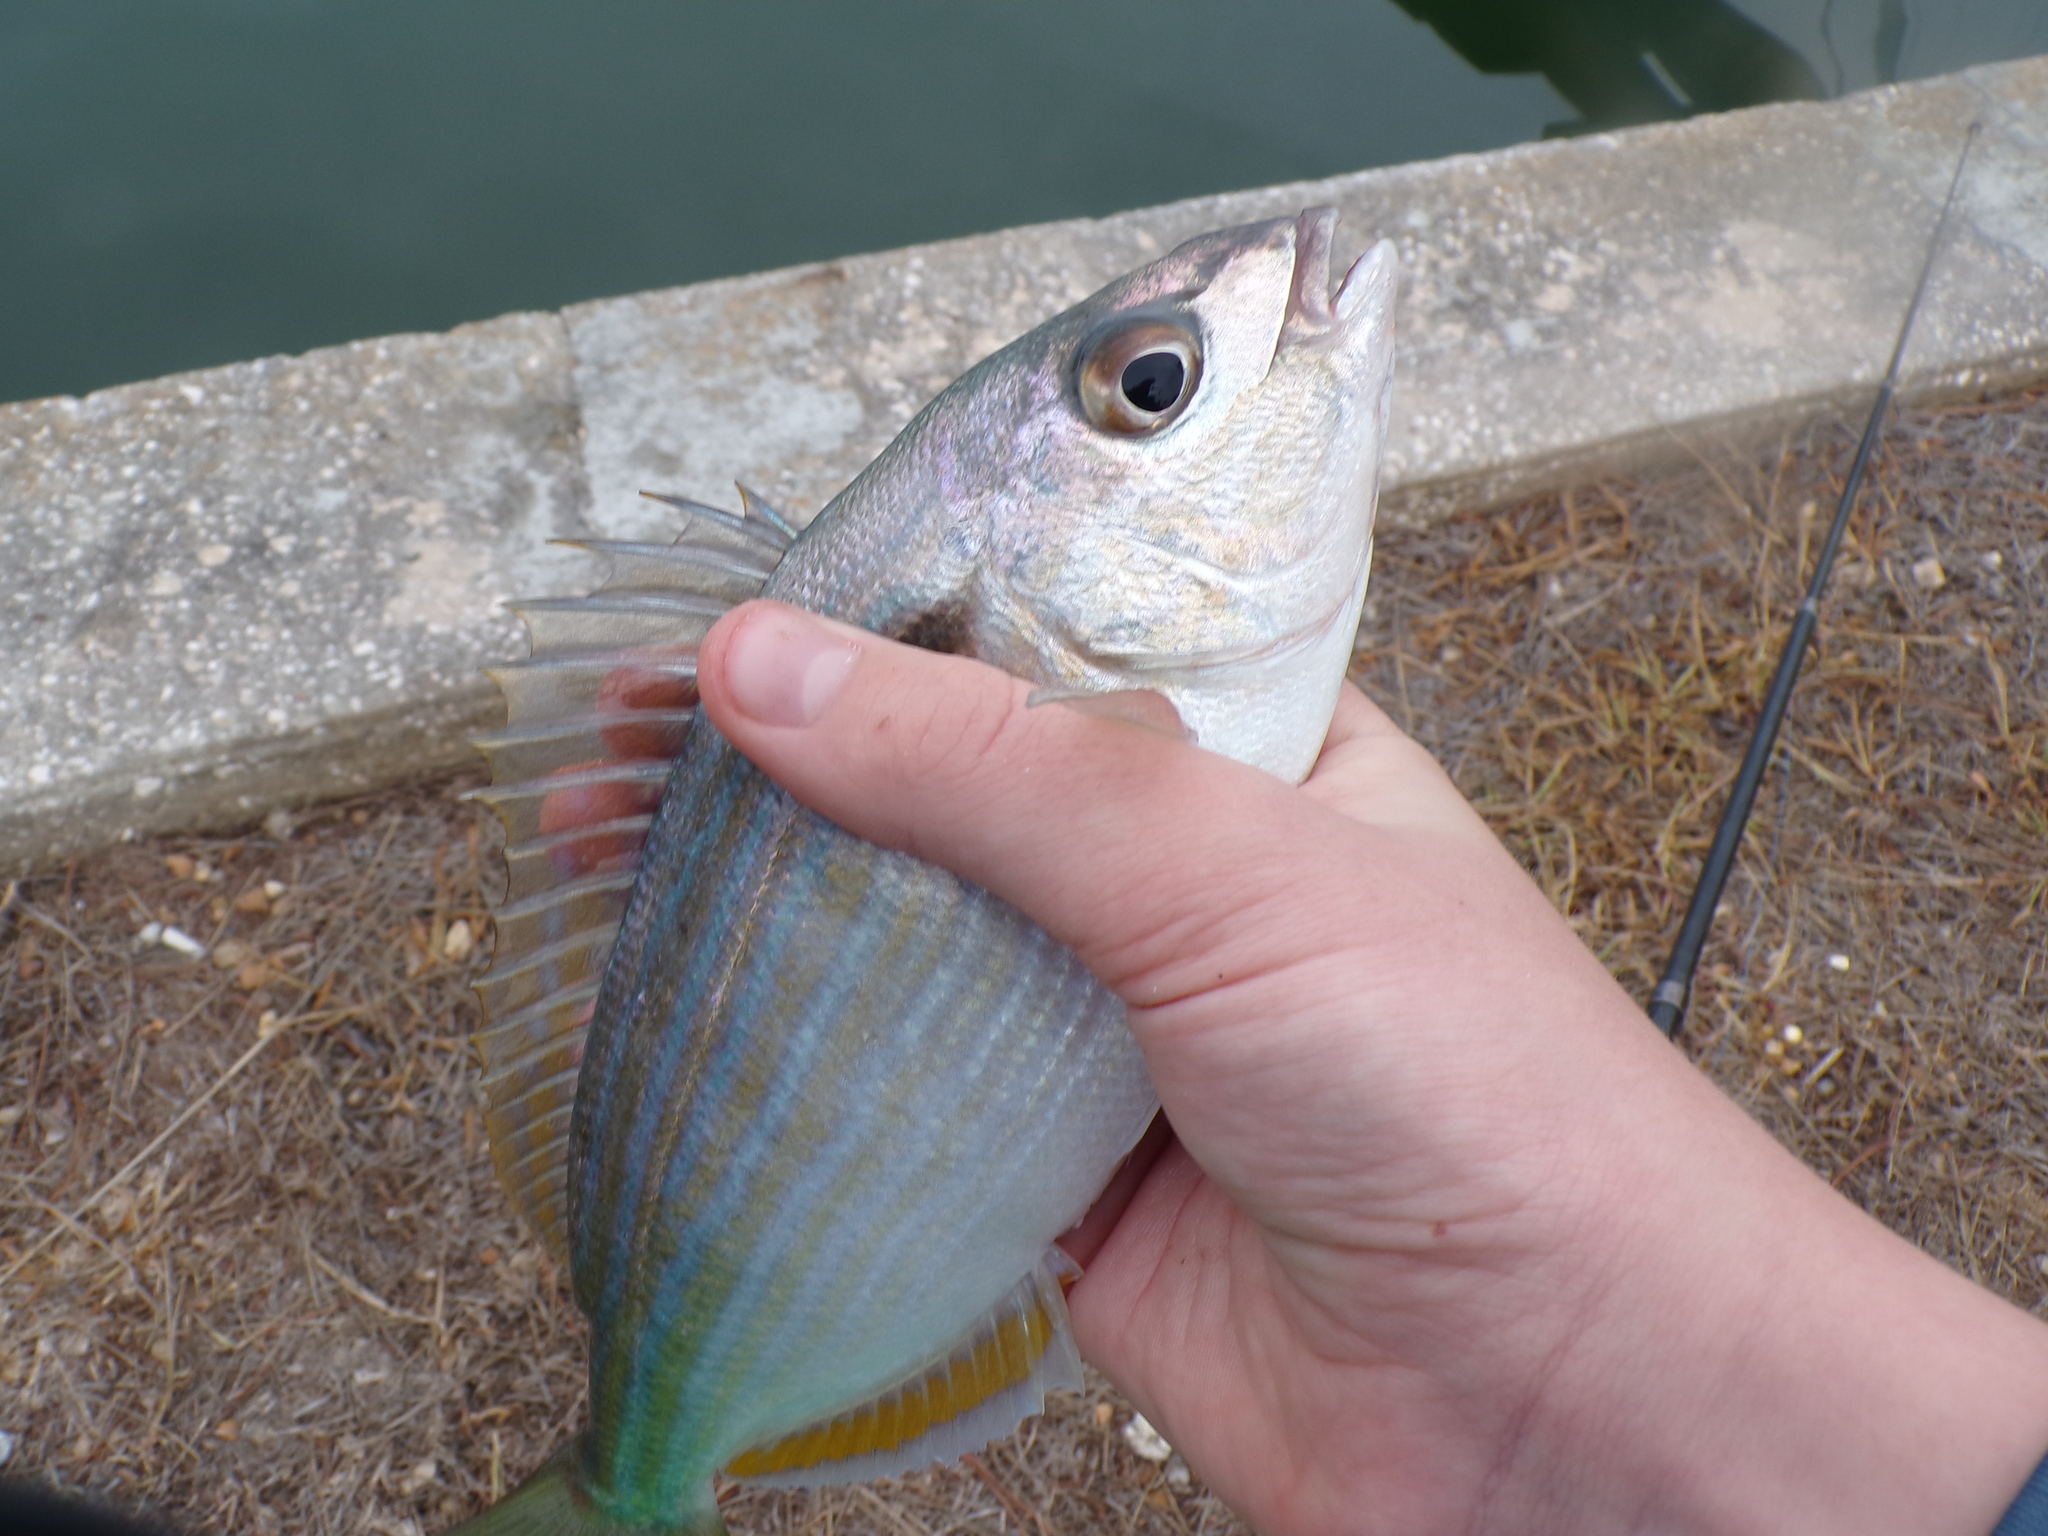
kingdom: Animalia
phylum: Chordata
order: Perciformes
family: Sparidae
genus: Lagodon
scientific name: Lagodon rhomboides
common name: Pinfish
